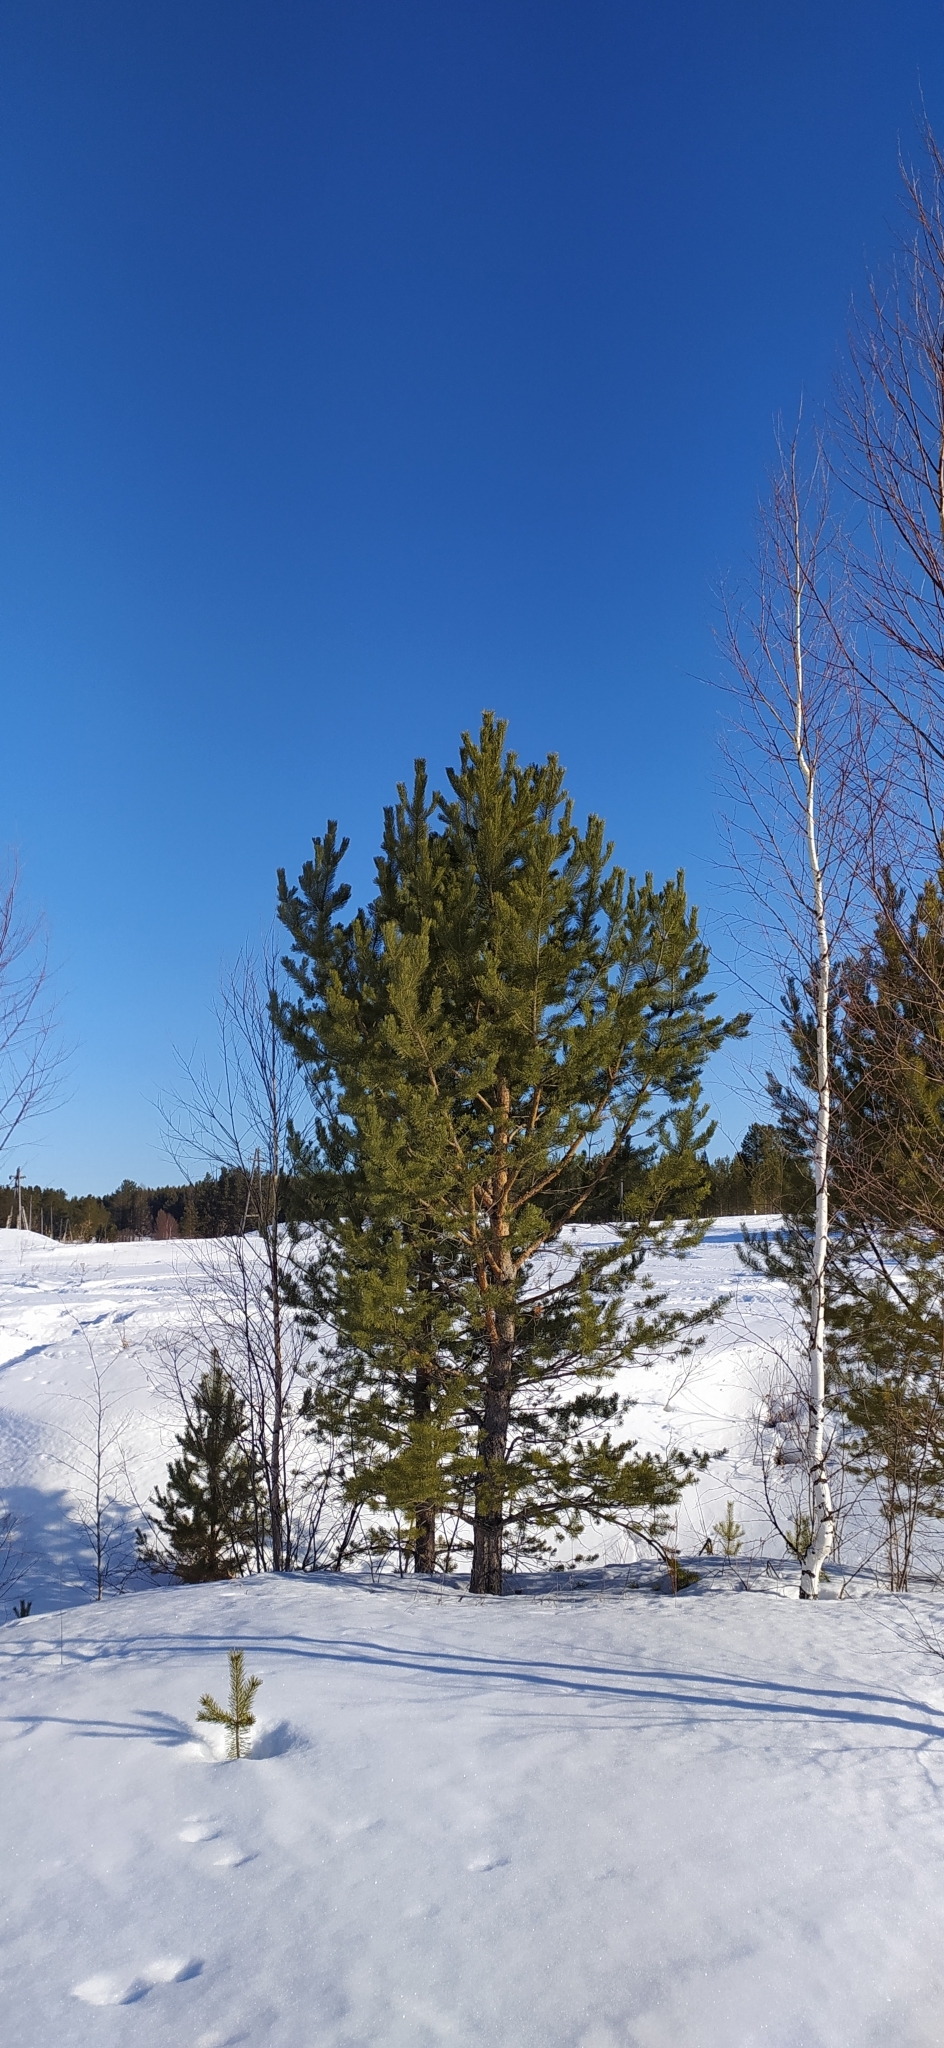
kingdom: Plantae
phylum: Tracheophyta
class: Pinopsida
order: Pinales
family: Pinaceae
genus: Pinus
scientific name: Pinus sylvestris
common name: Scots pine
